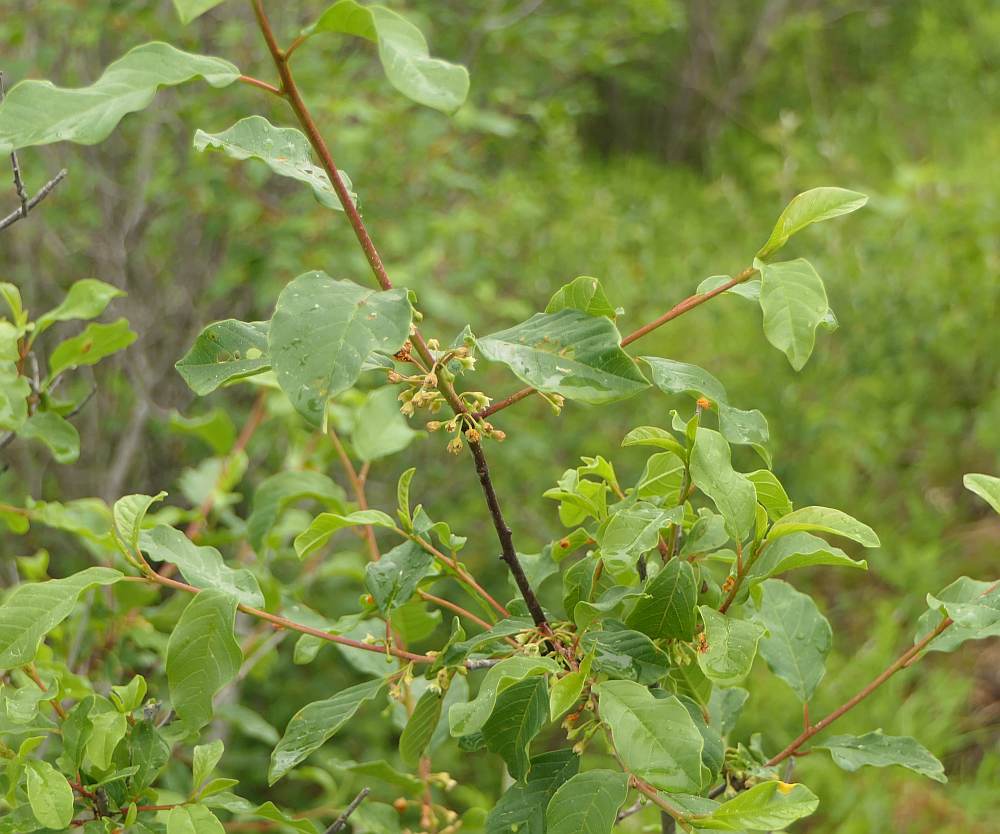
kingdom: Plantae
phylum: Tracheophyta
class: Magnoliopsida
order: Rosales
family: Rhamnaceae
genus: Frangula
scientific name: Frangula alnus
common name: Alder buckthorn
